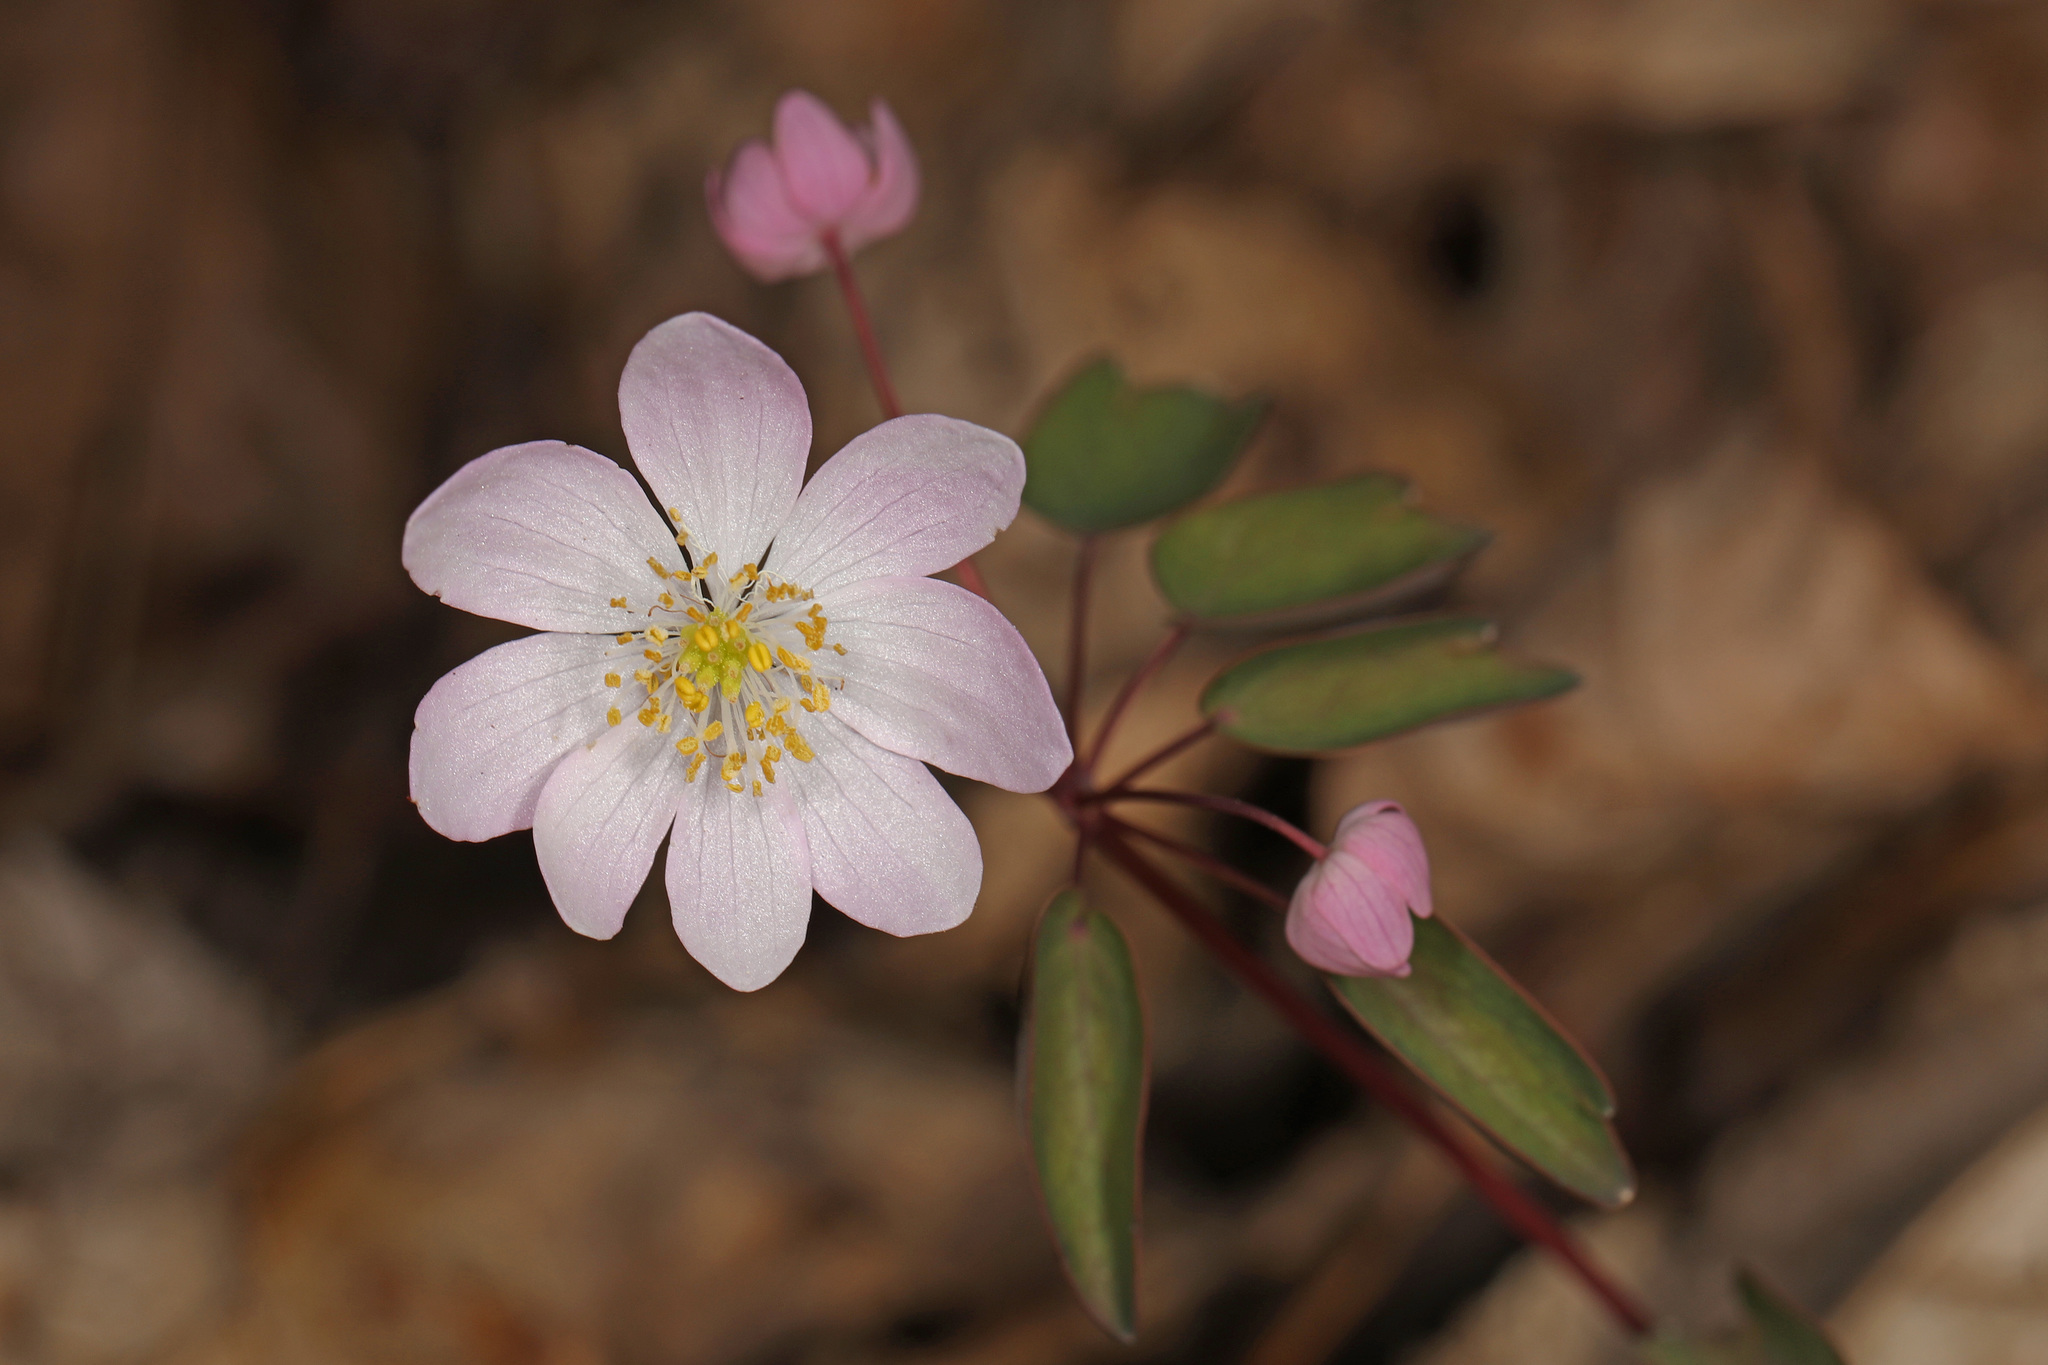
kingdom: Plantae
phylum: Tracheophyta
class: Magnoliopsida
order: Ranunculales
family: Ranunculaceae
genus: Thalictrum
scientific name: Thalictrum thalictroides
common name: Rue-anemone
